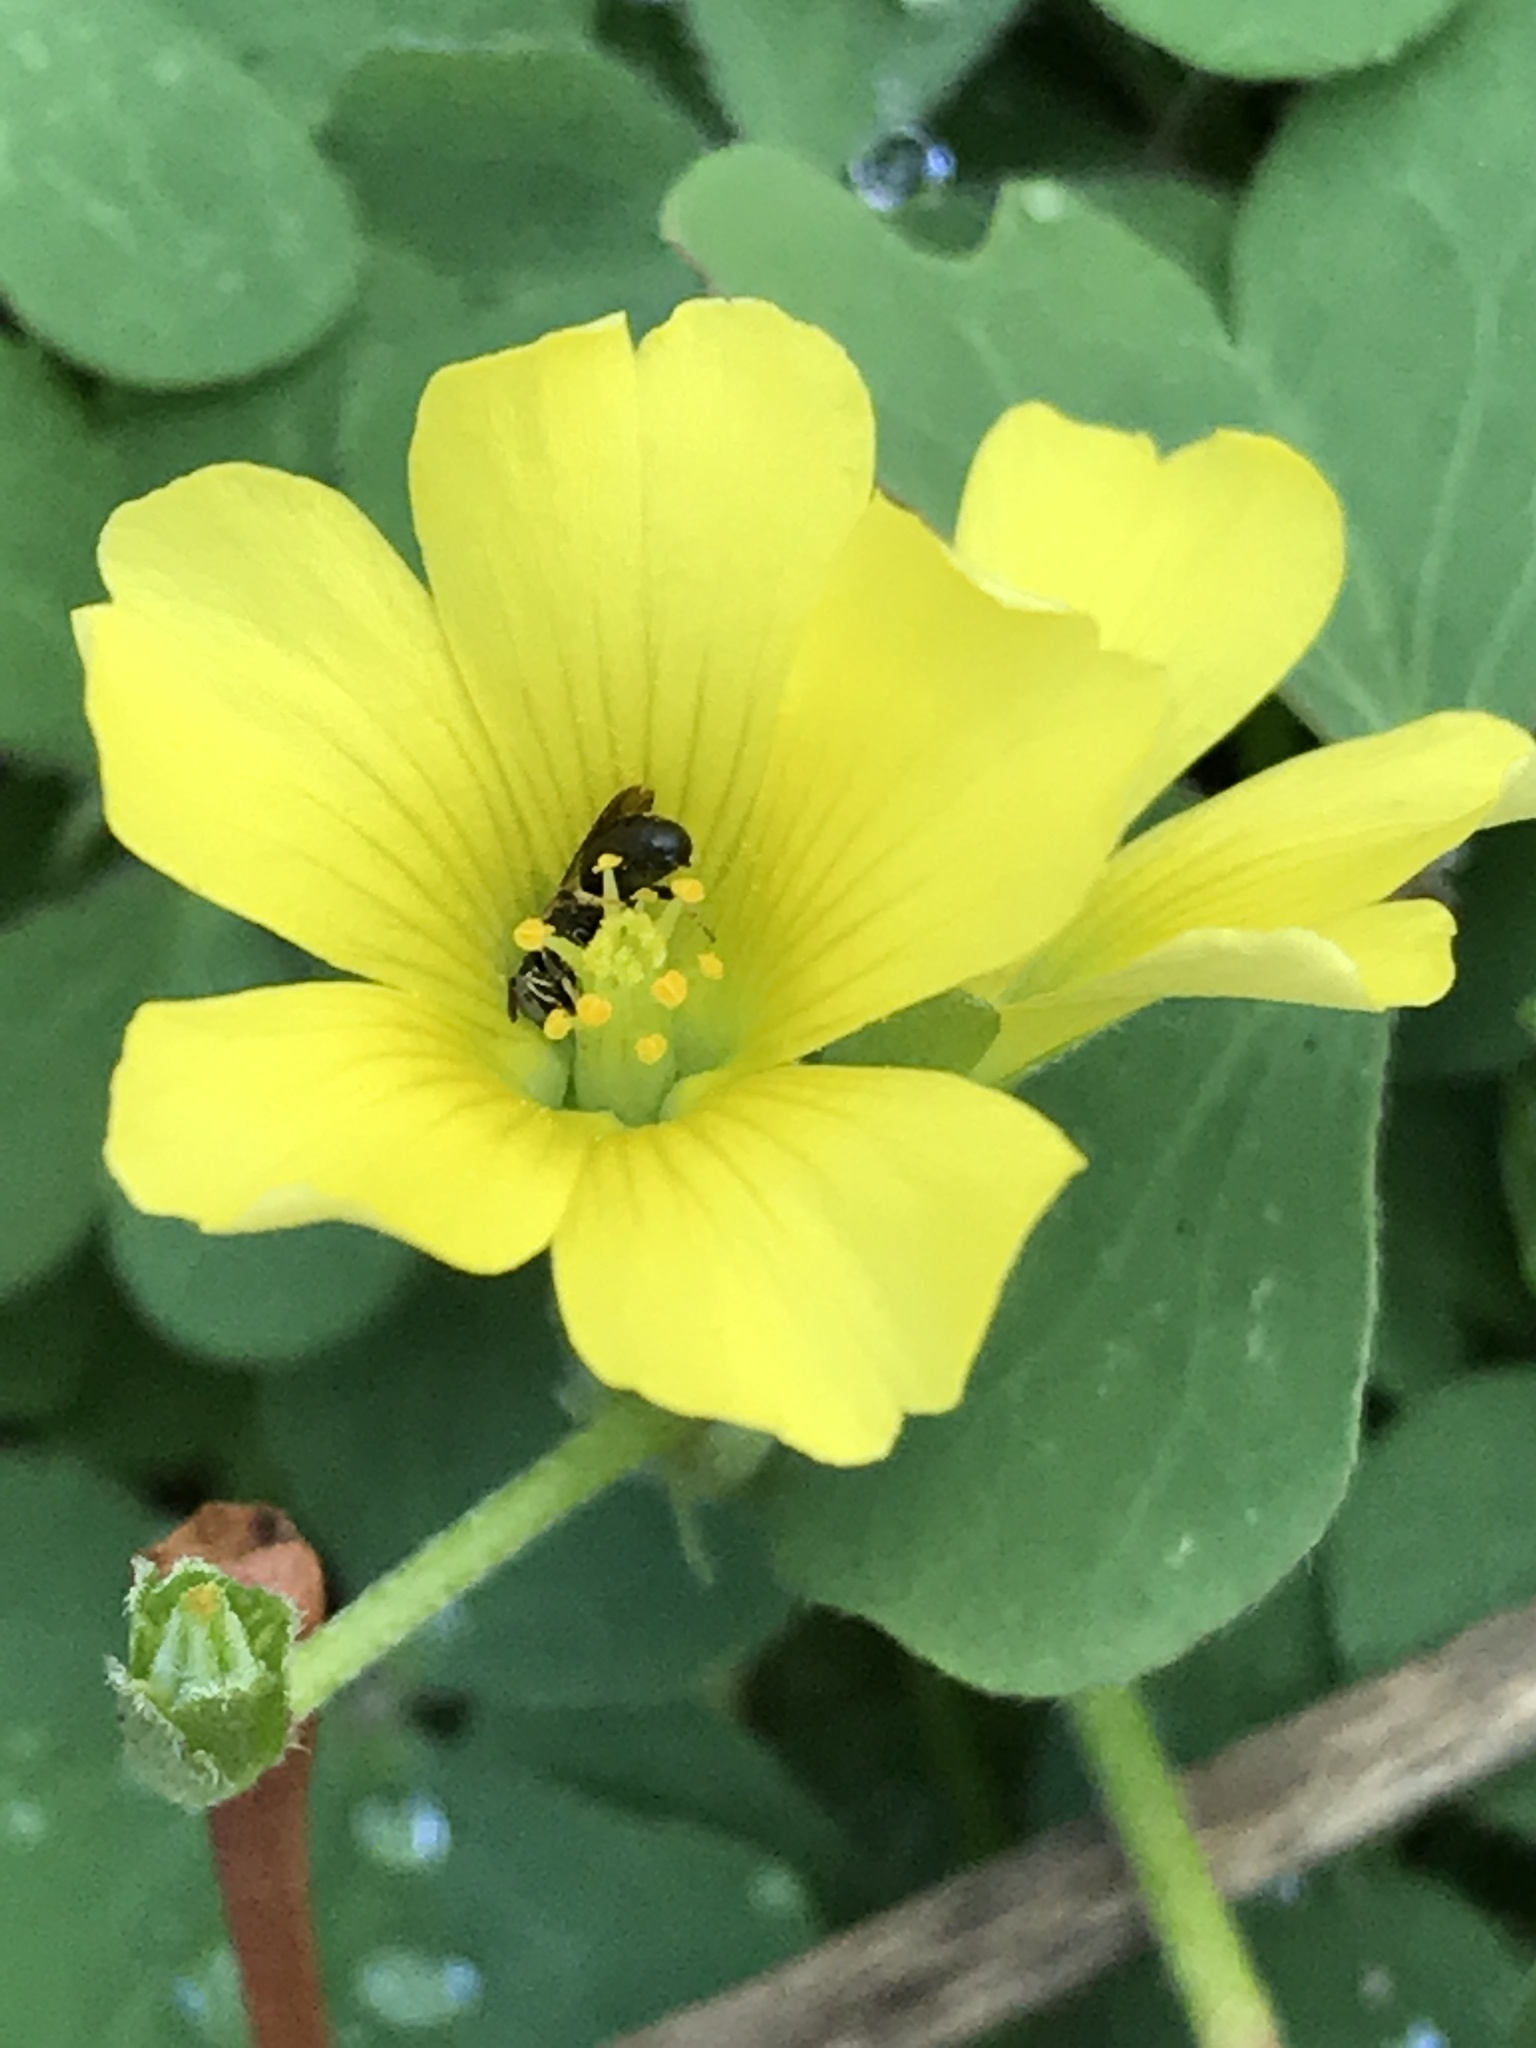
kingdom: Plantae
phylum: Tracheophyta
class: Magnoliopsida
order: Oxalidales
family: Oxalidaceae
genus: Oxalis
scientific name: Oxalis dillenii
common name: Sussex yellow-sorrel
